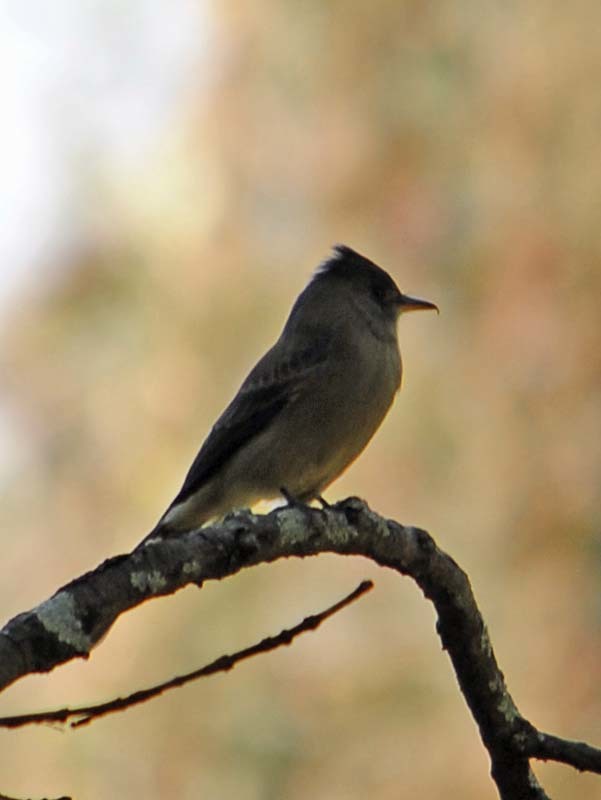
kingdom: Animalia
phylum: Chordata
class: Aves
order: Passeriformes
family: Tyrannidae
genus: Contopus
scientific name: Contopus pertinax
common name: Greater pewee
